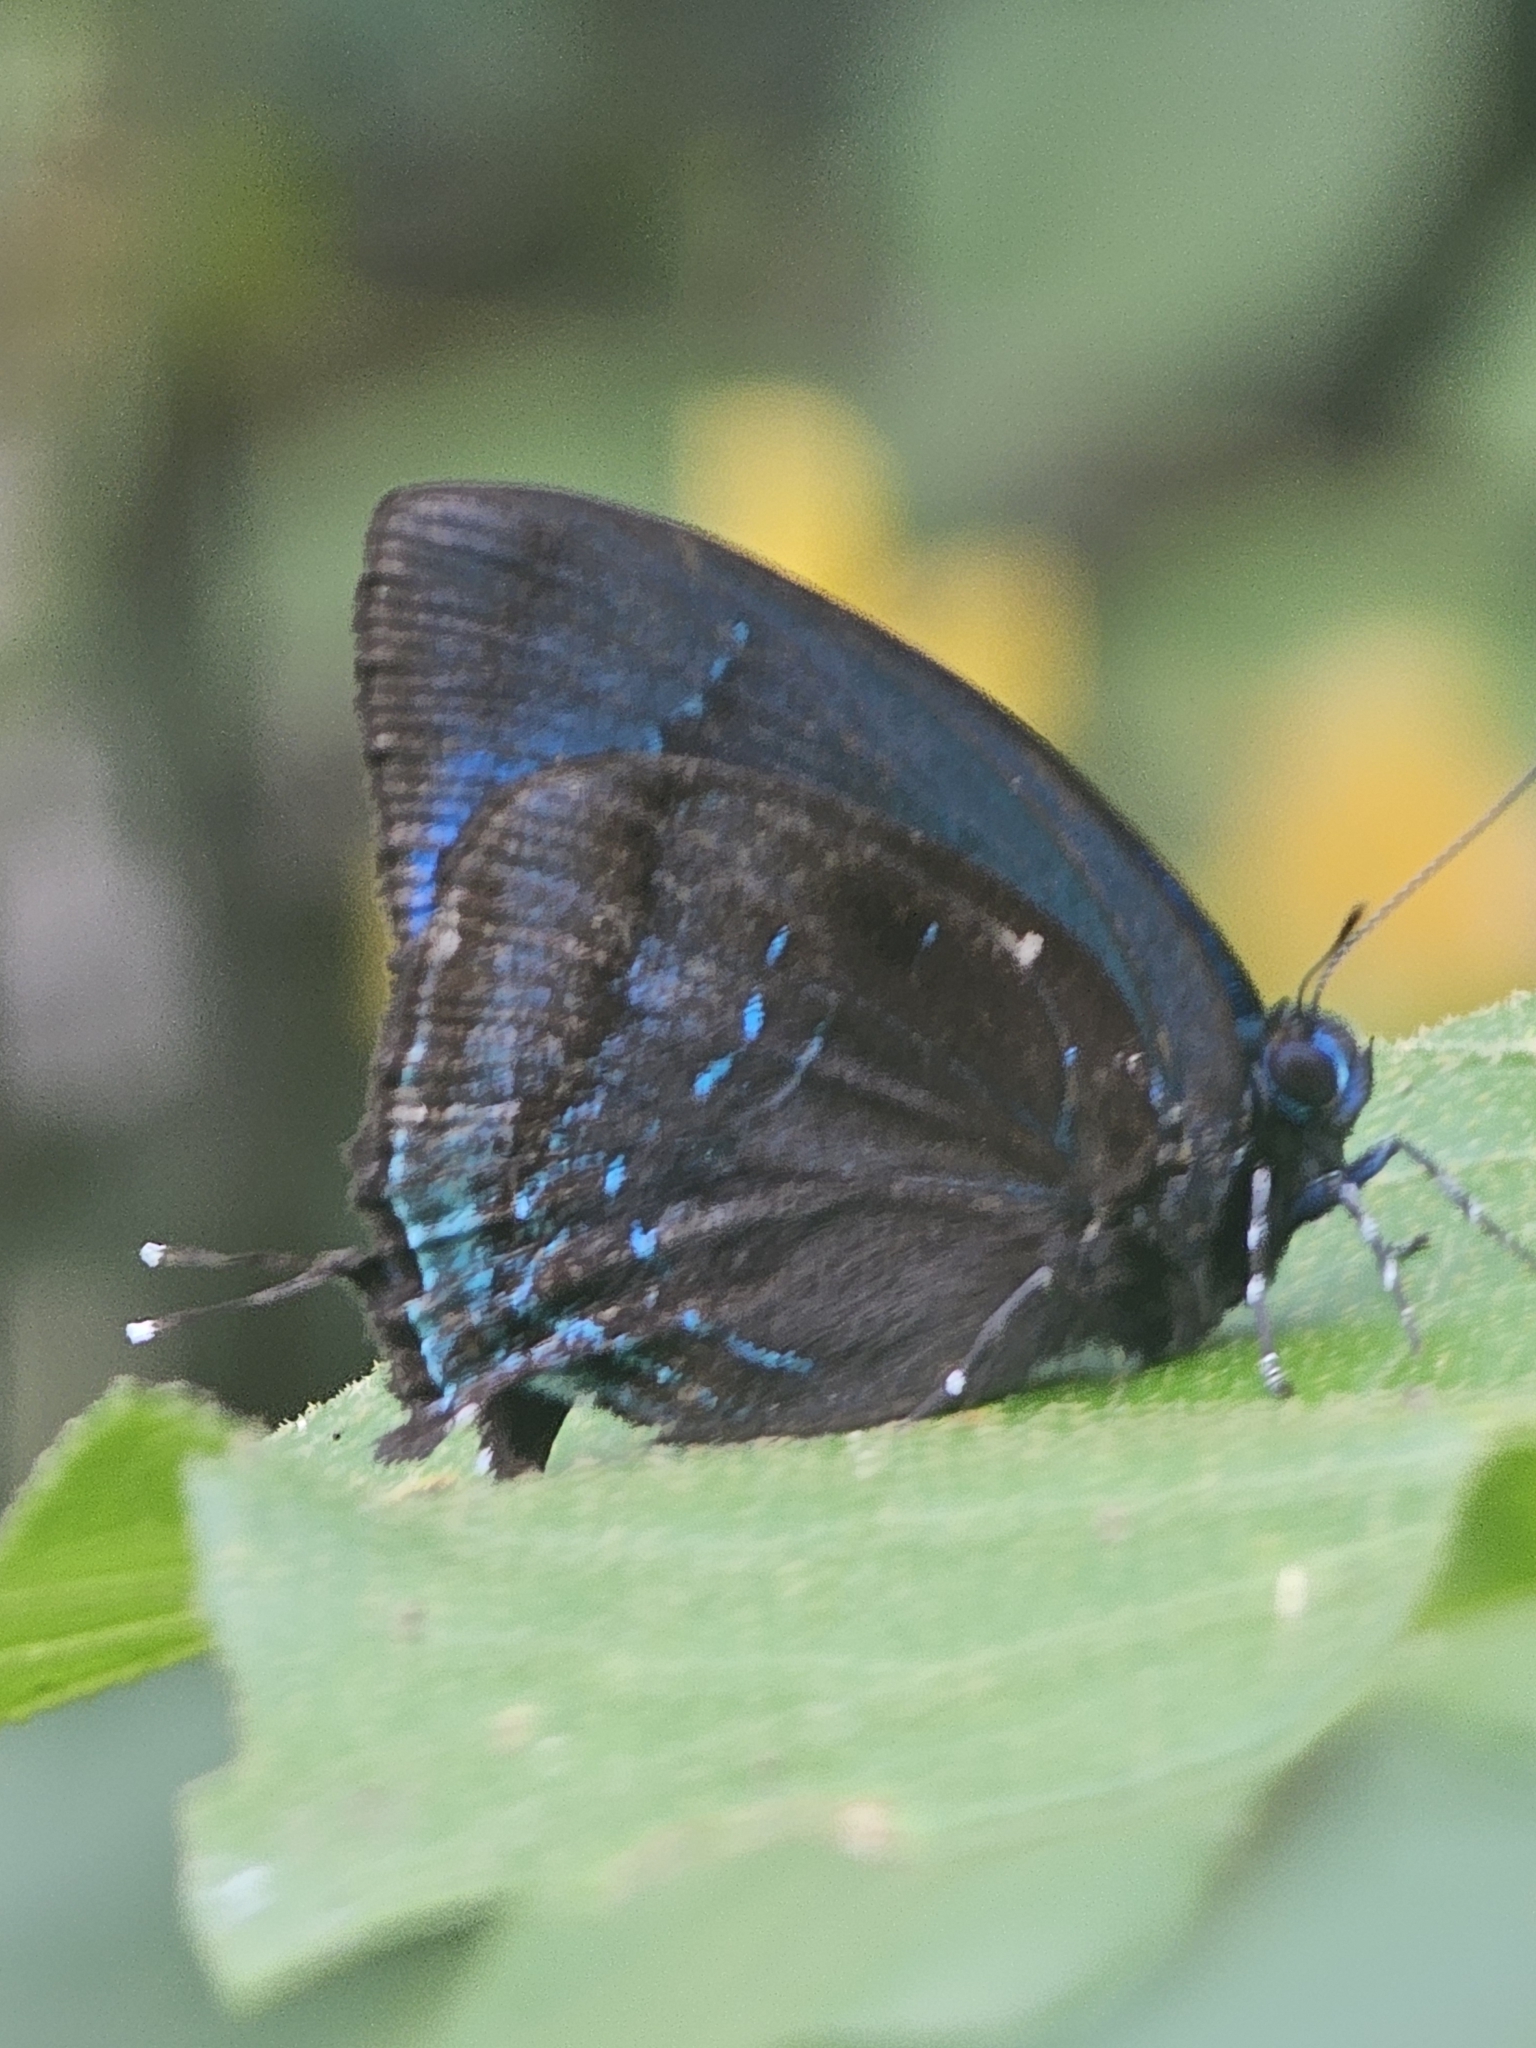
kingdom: Animalia
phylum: Arthropoda
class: Insecta
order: Lepidoptera
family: Lycaenidae
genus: Denivia
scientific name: Denivia hemon
